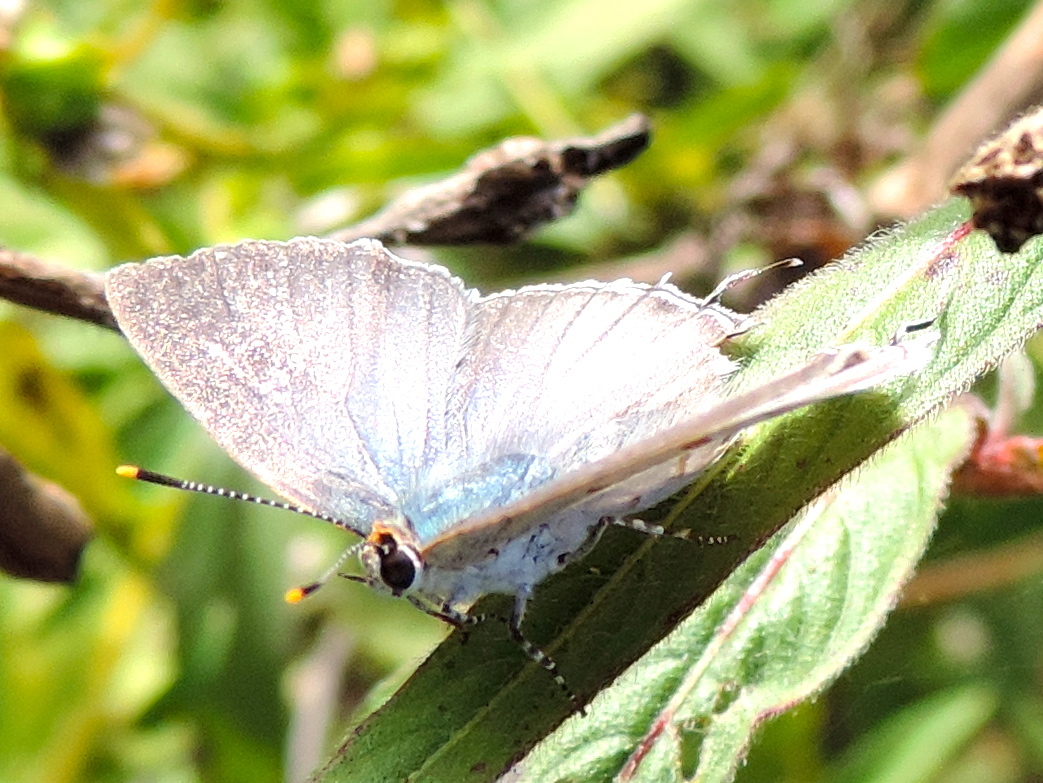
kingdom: Animalia
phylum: Arthropoda
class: Insecta
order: Lepidoptera
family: Lycaenidae
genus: Callicista
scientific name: Callicista columella
